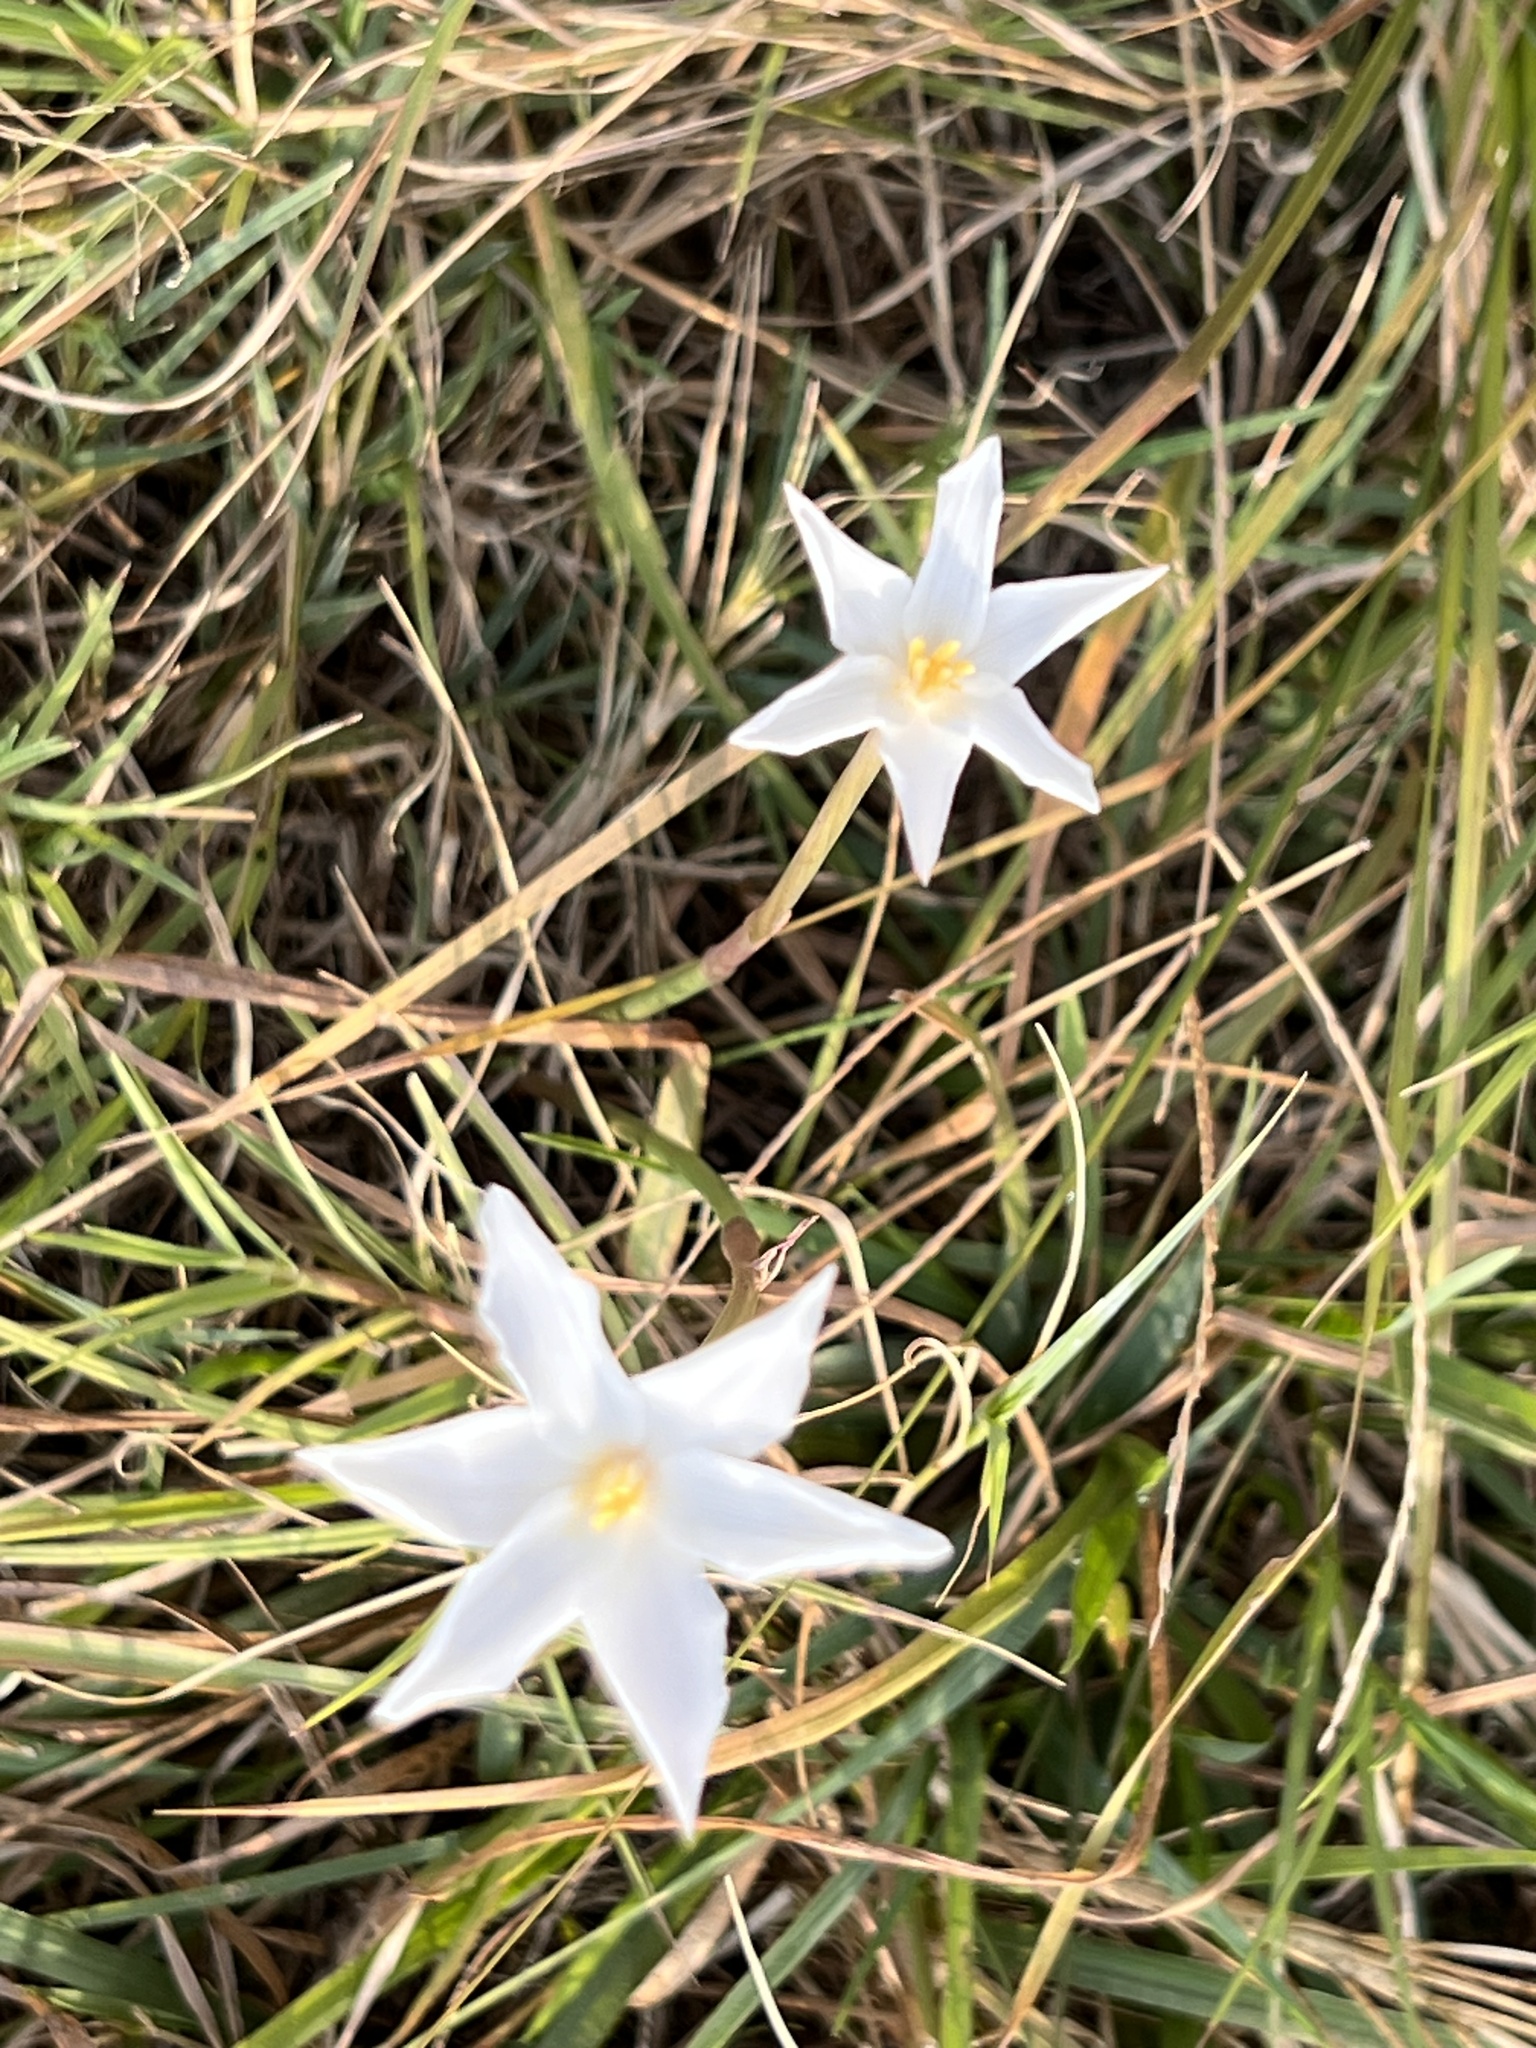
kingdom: Plantae
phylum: Tracheophyta
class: Liliopsida
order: Asparagales
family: Amaryllidaceae
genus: Zephyranthes
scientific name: Zephyranthes chlorosolen
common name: Evening rain-lily
